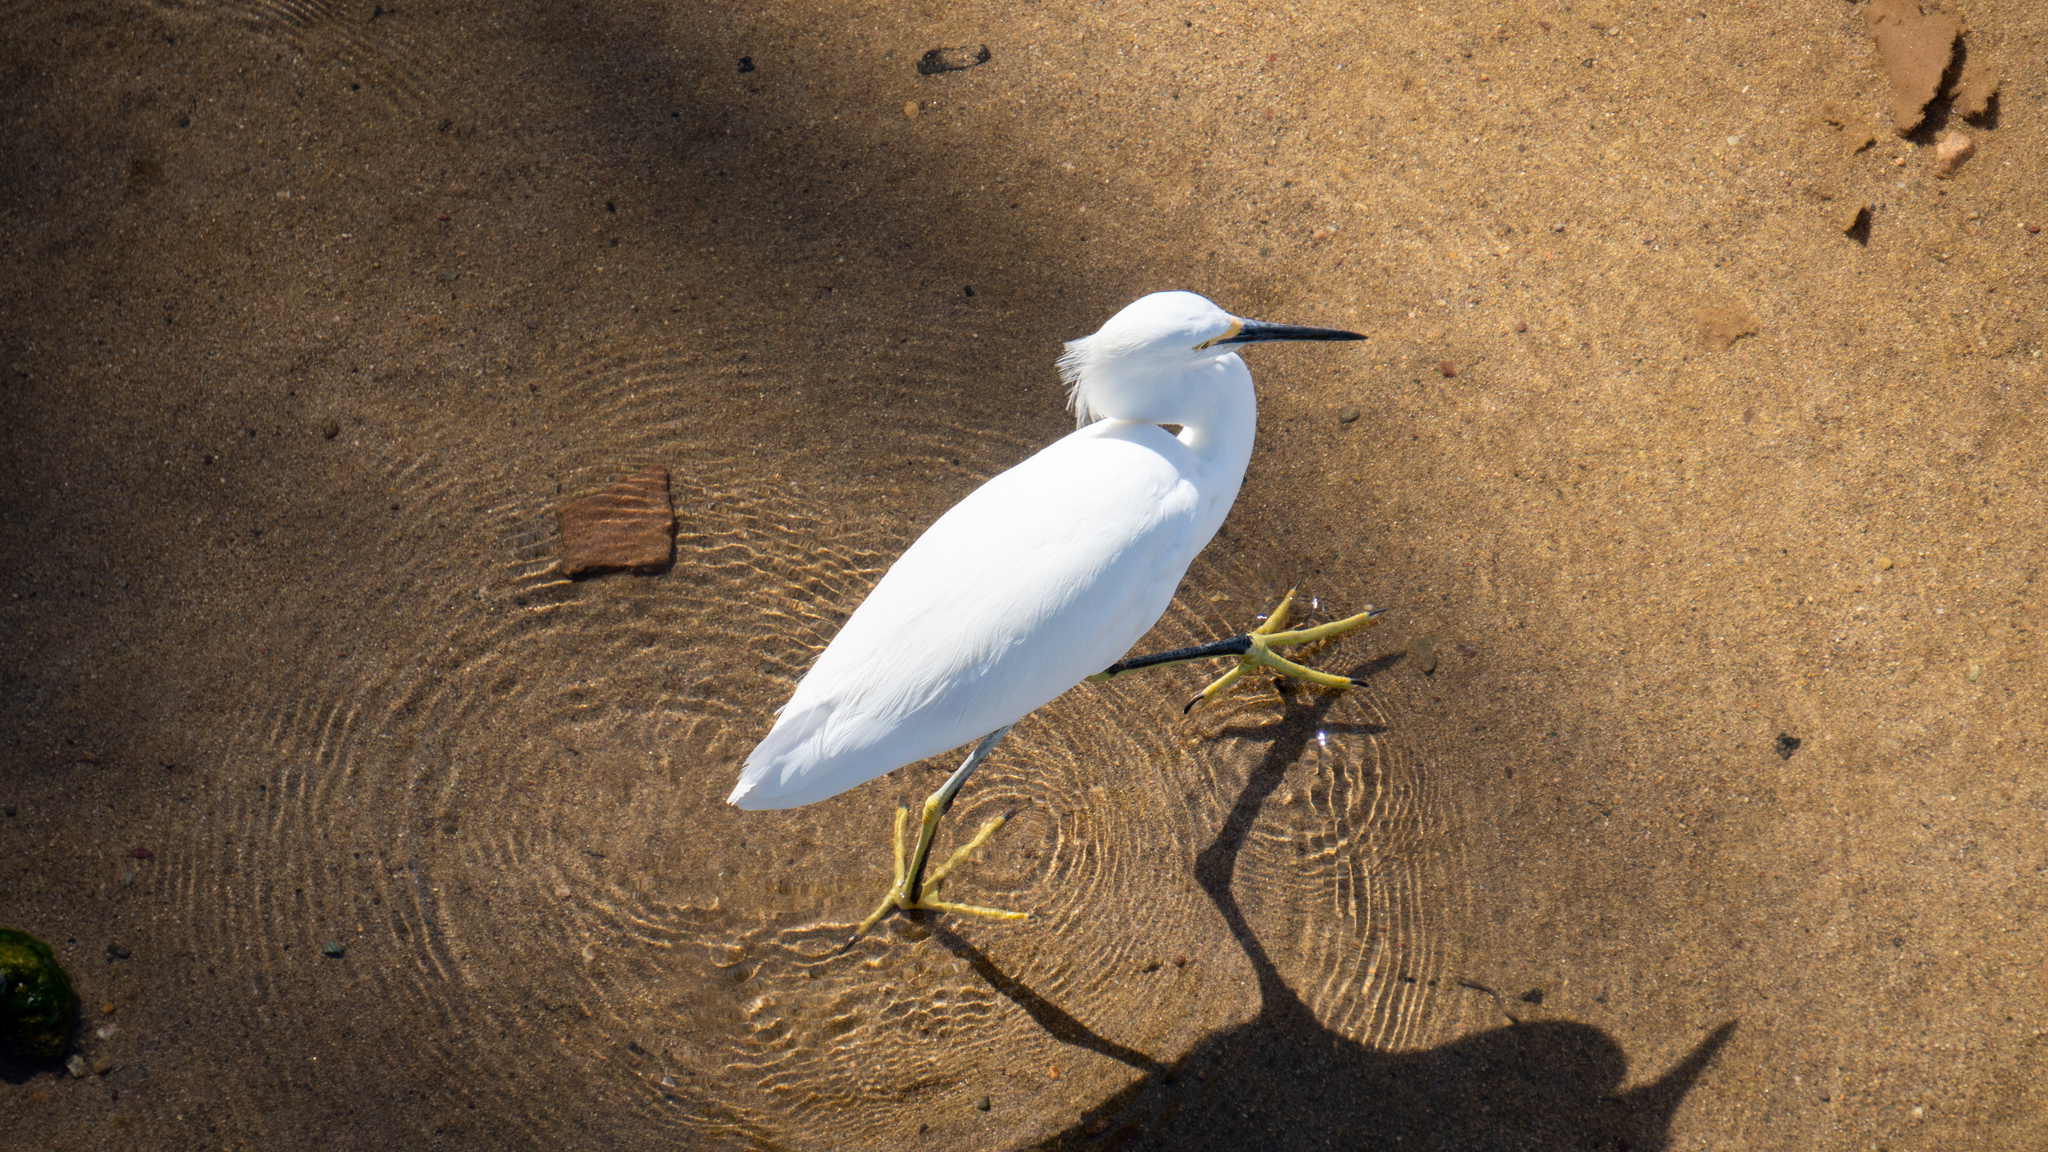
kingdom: Animalia
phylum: Chordata
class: Aves
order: Pelecaniformes
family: Ardeidae
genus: Egretta
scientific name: Egretta thula
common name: Snowy egret
